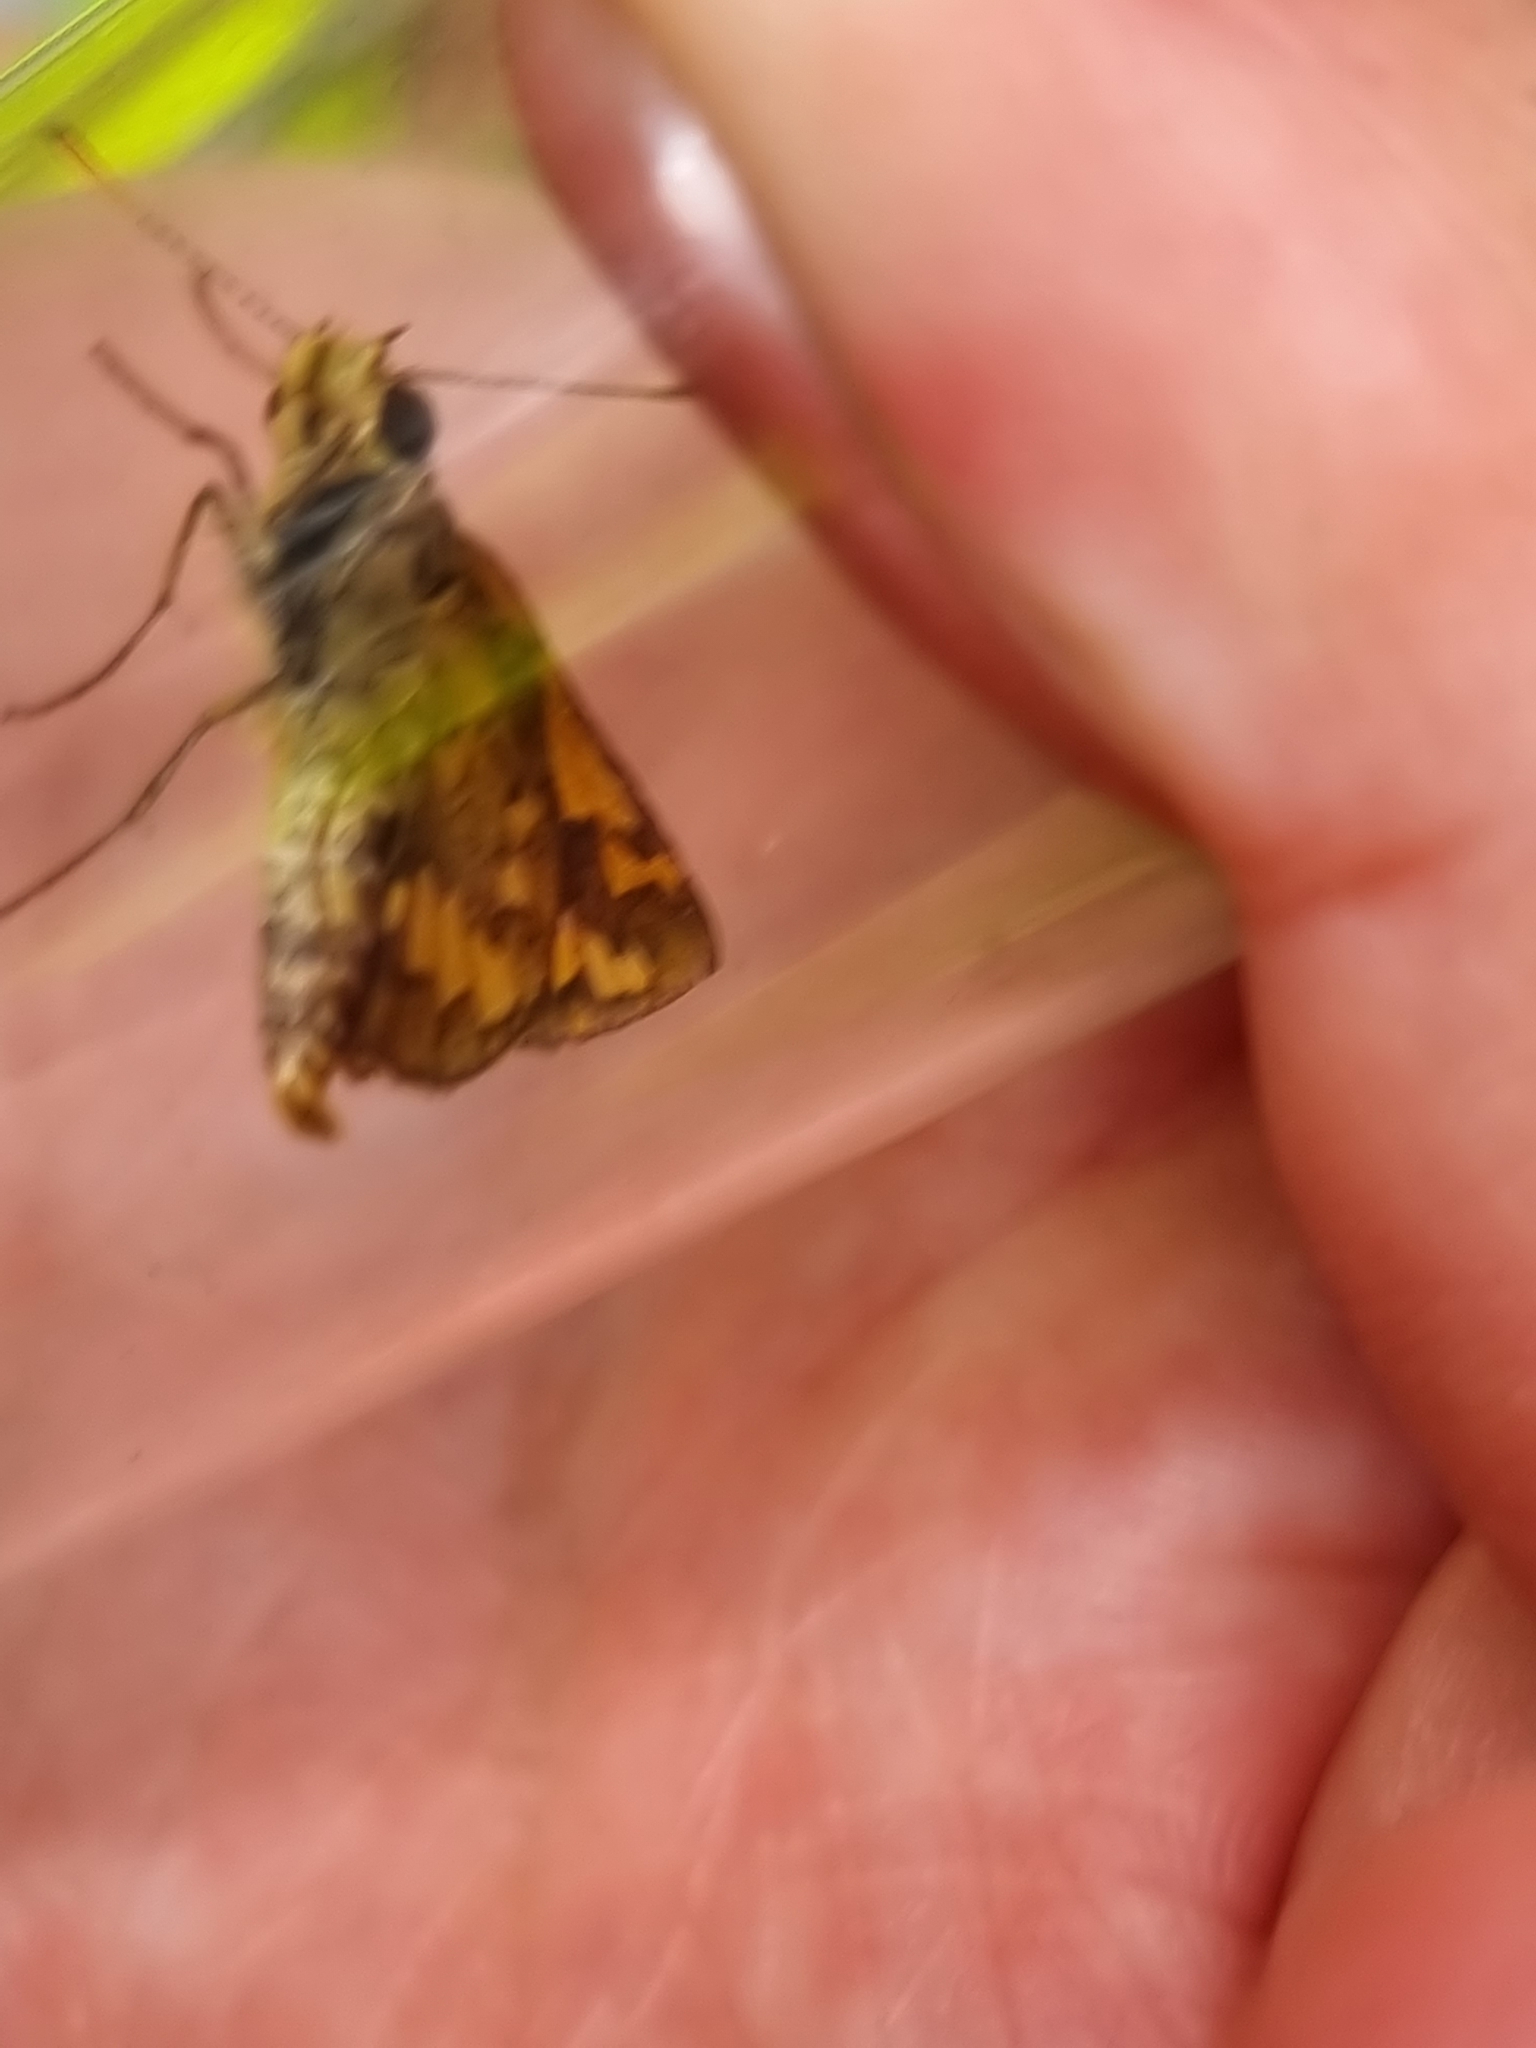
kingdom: Animalia
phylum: Arthropoda
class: Insecta
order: Lepidoptera
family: Hesperiidae
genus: Suniana
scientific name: Suniana sunias
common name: Wide-brand grass-dart
